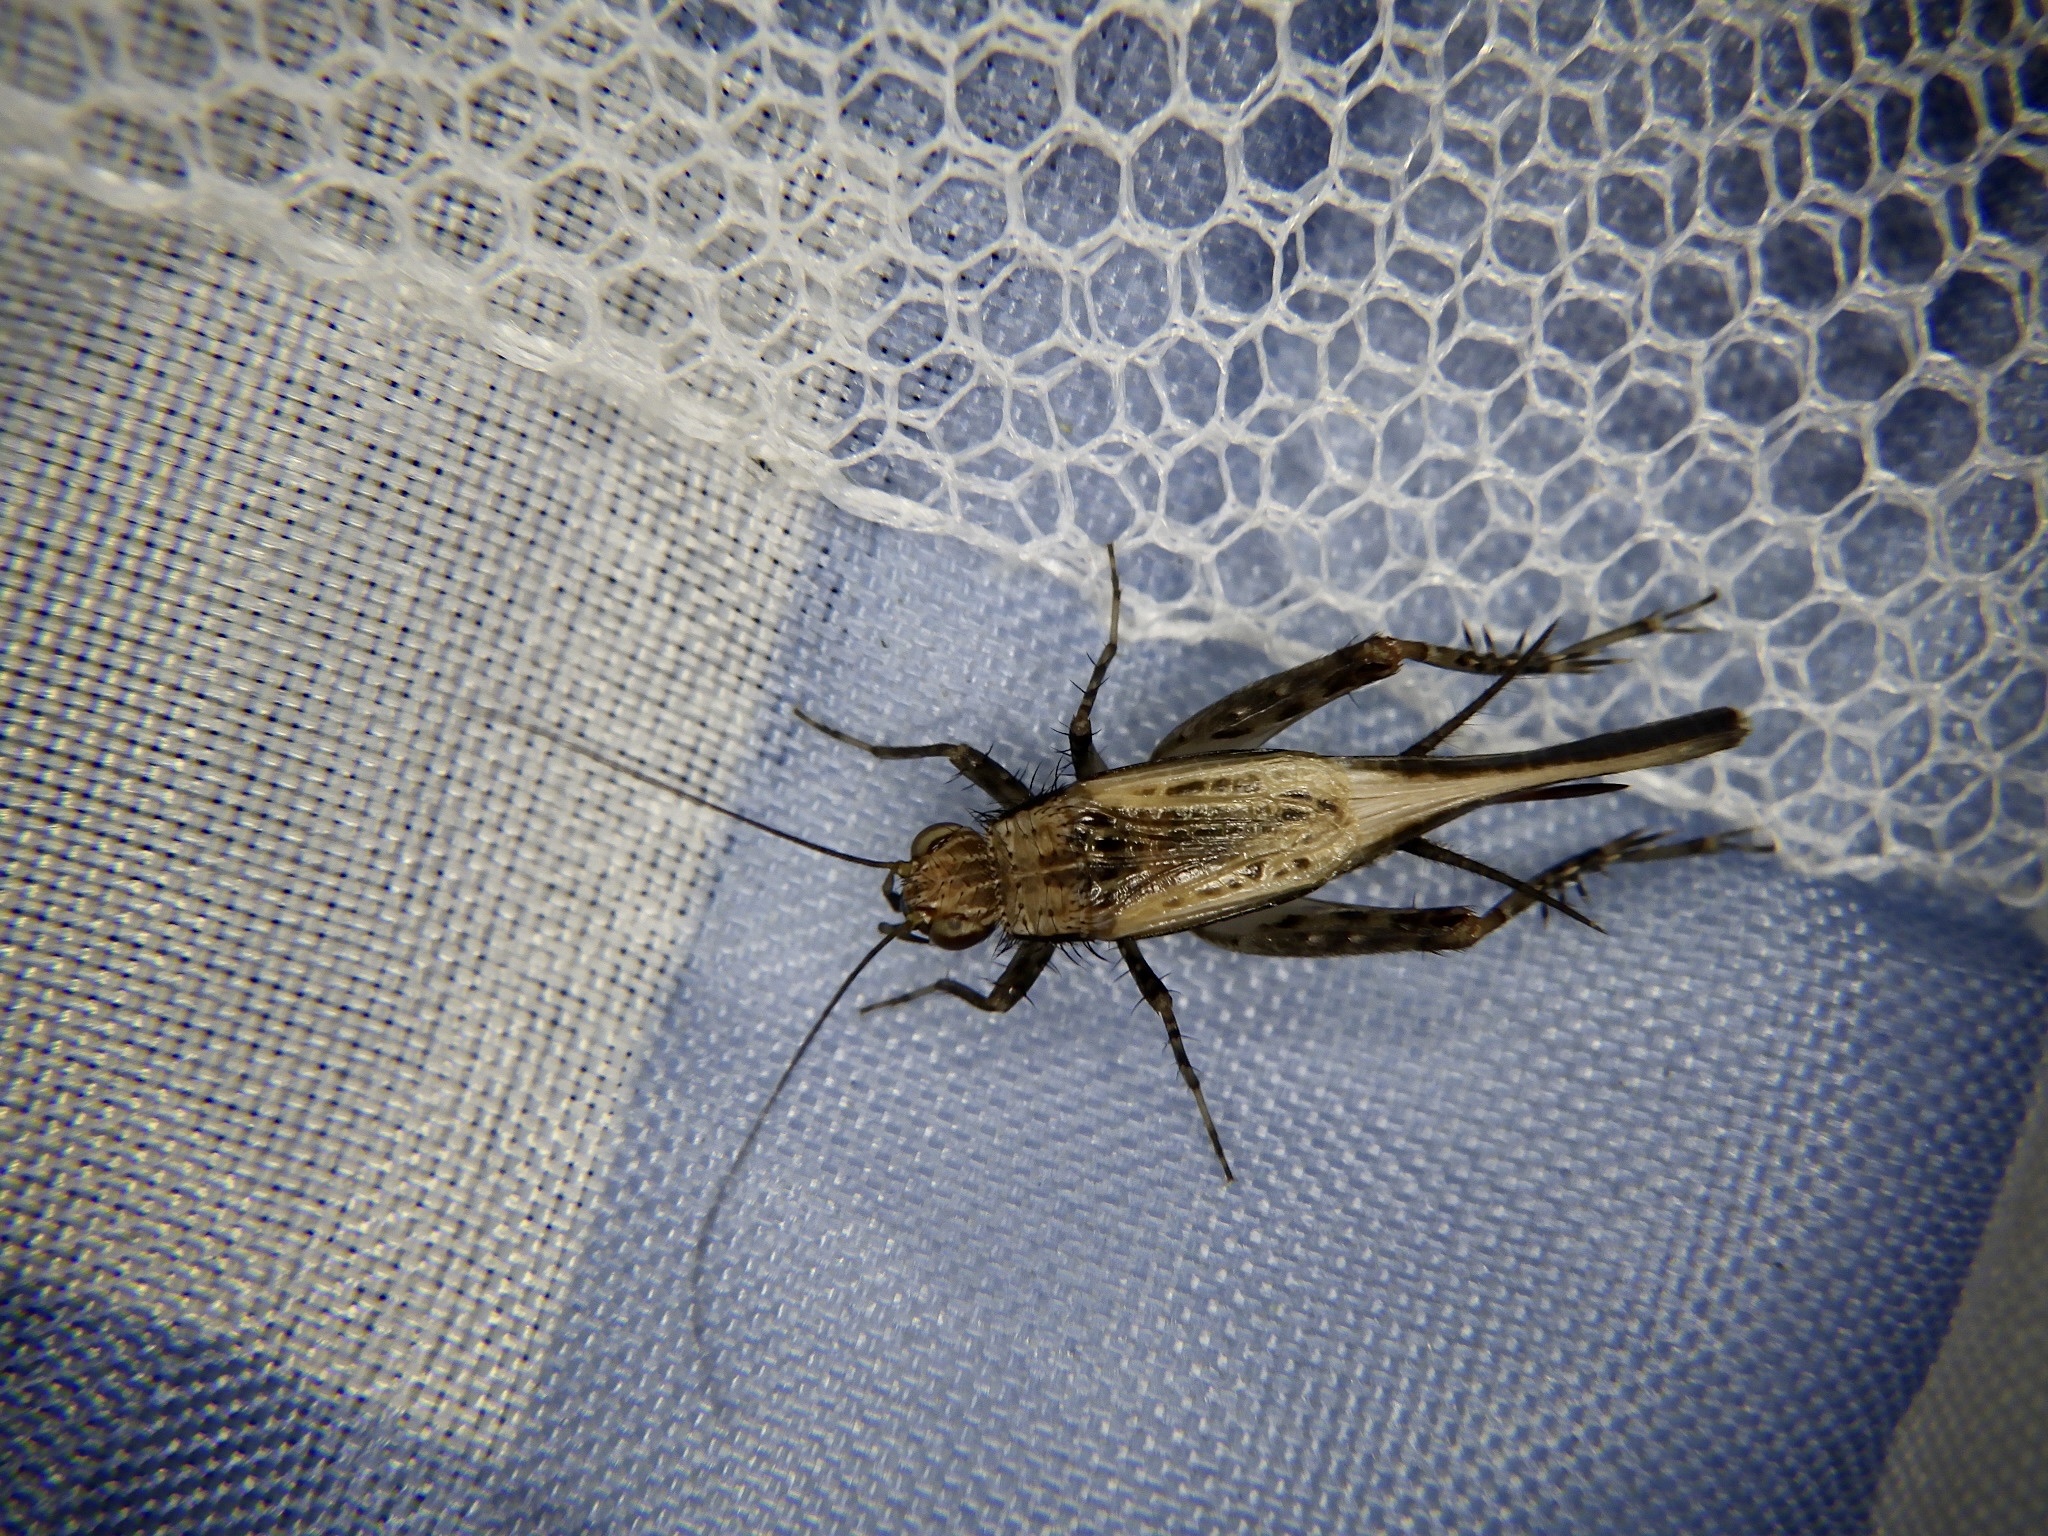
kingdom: Animalia
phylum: Arthropoda
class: Insecta
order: Orthoptera
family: Trigonidiidae
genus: Polionemobius
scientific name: Polionemobius taprobanense
